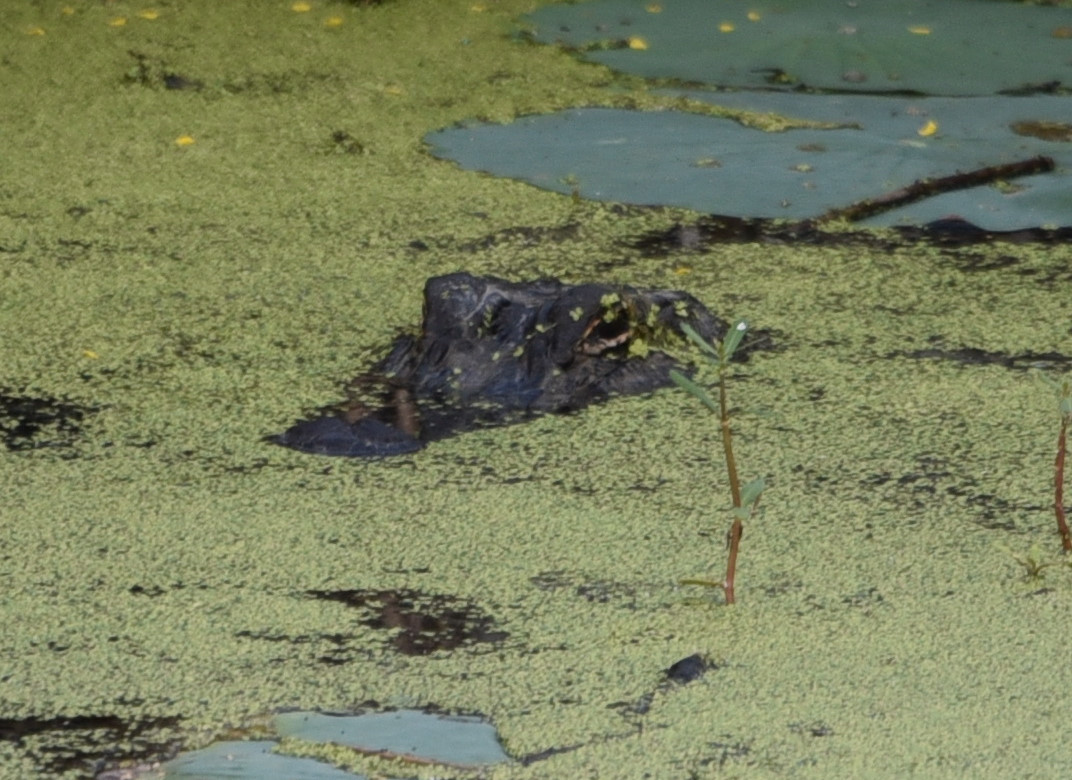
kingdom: Animalia
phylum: Chordata
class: Crocodylia
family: Alligatoridae
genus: Alligator
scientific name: Alligator mississippiensis
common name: American alligator
